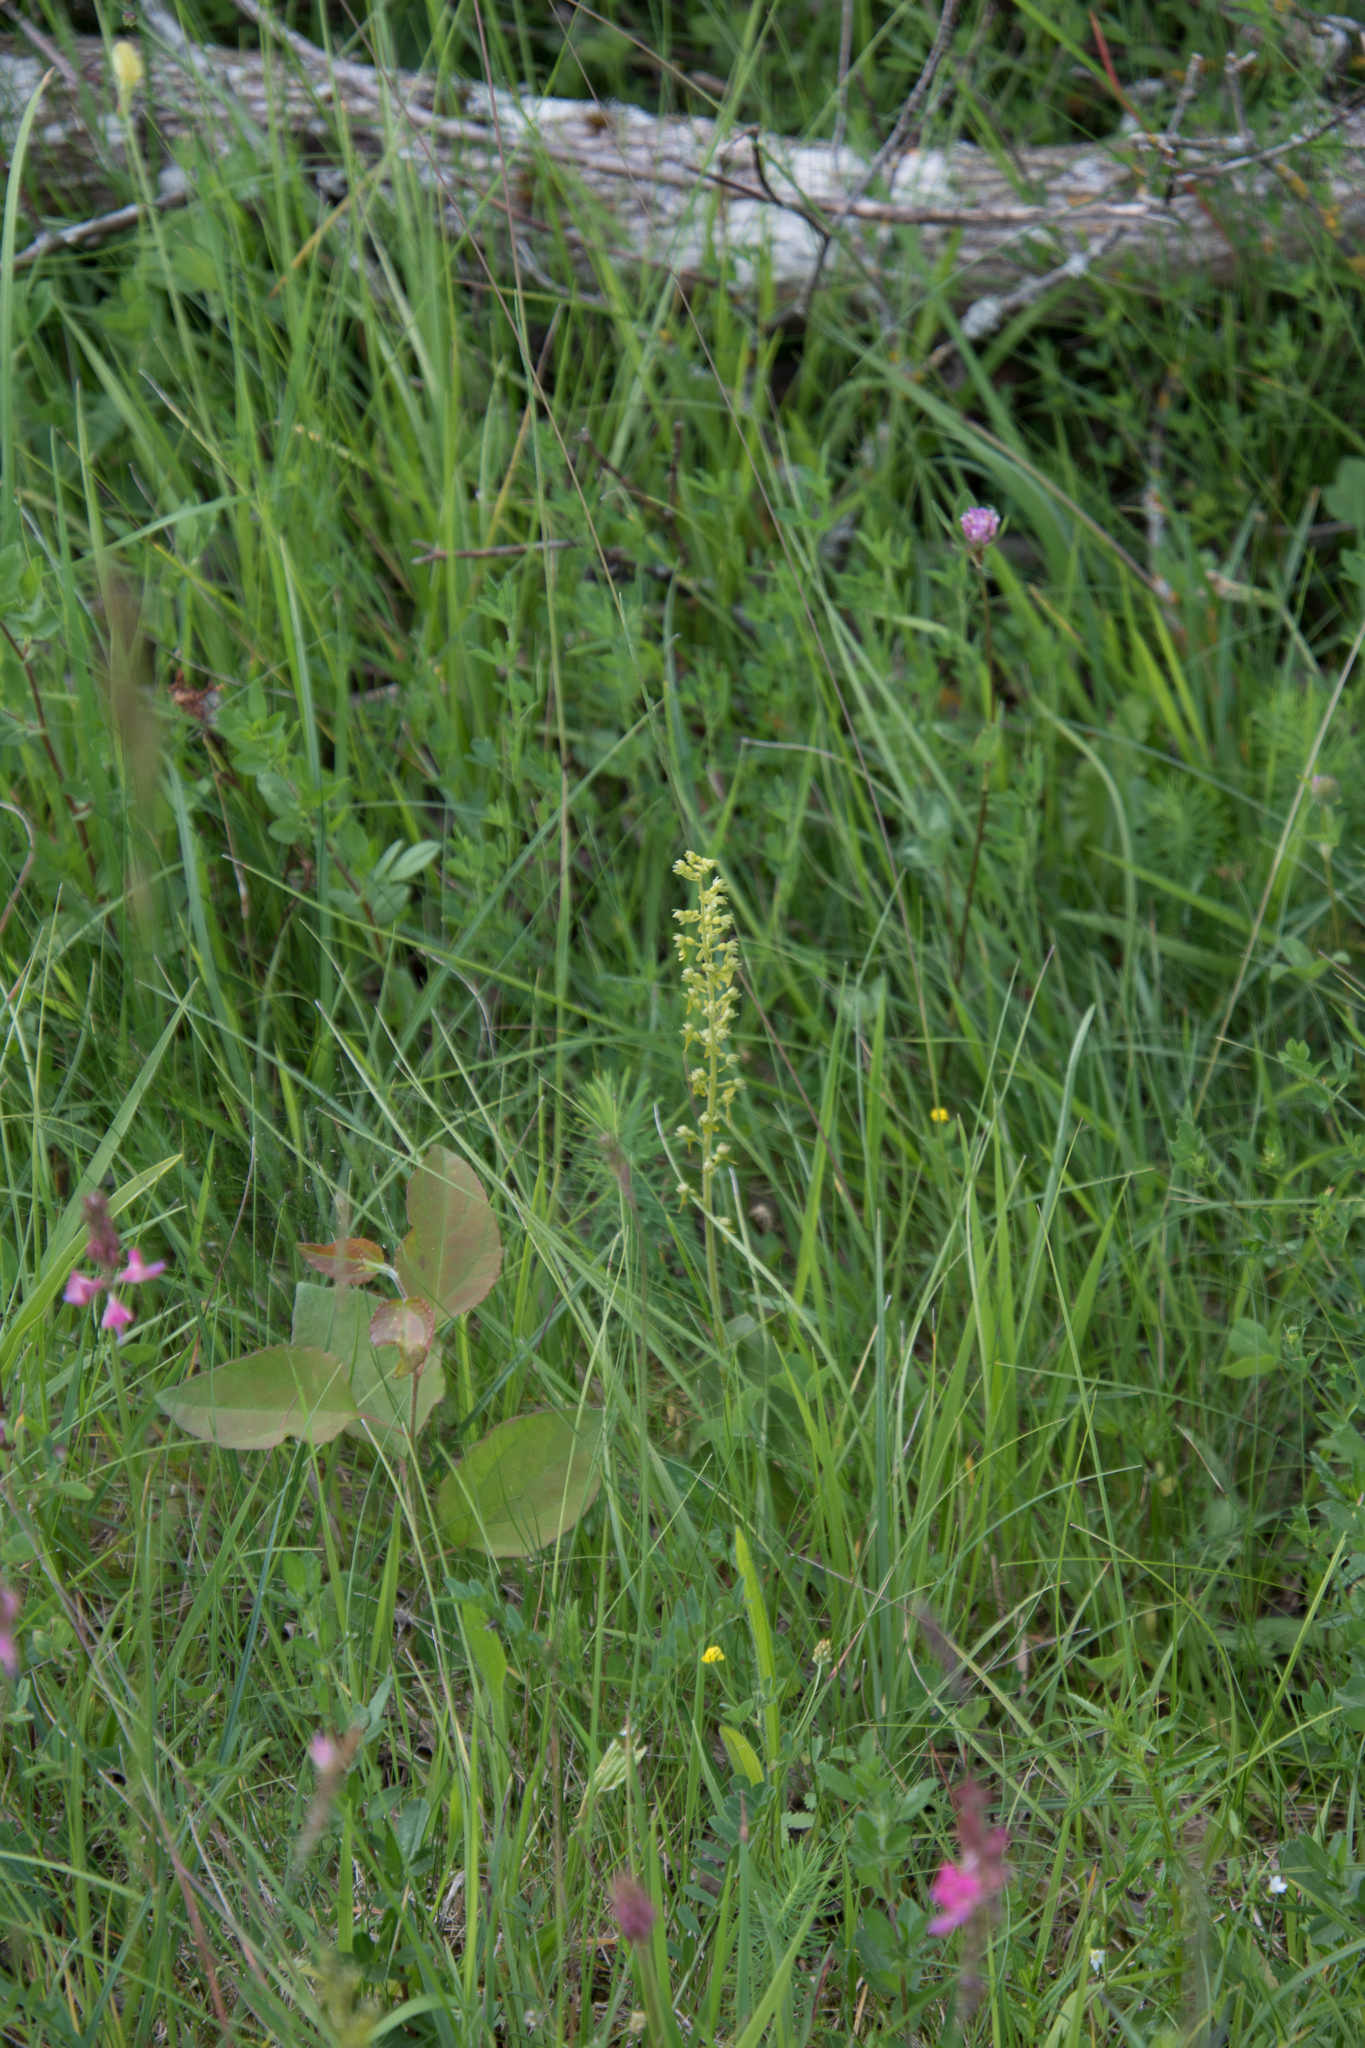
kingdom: Plantae
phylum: Tracheophyta
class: Liliopsida
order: Asparagales
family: Orchidaceae
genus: Neottia
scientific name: Neottia ovata
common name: Common twayblade
